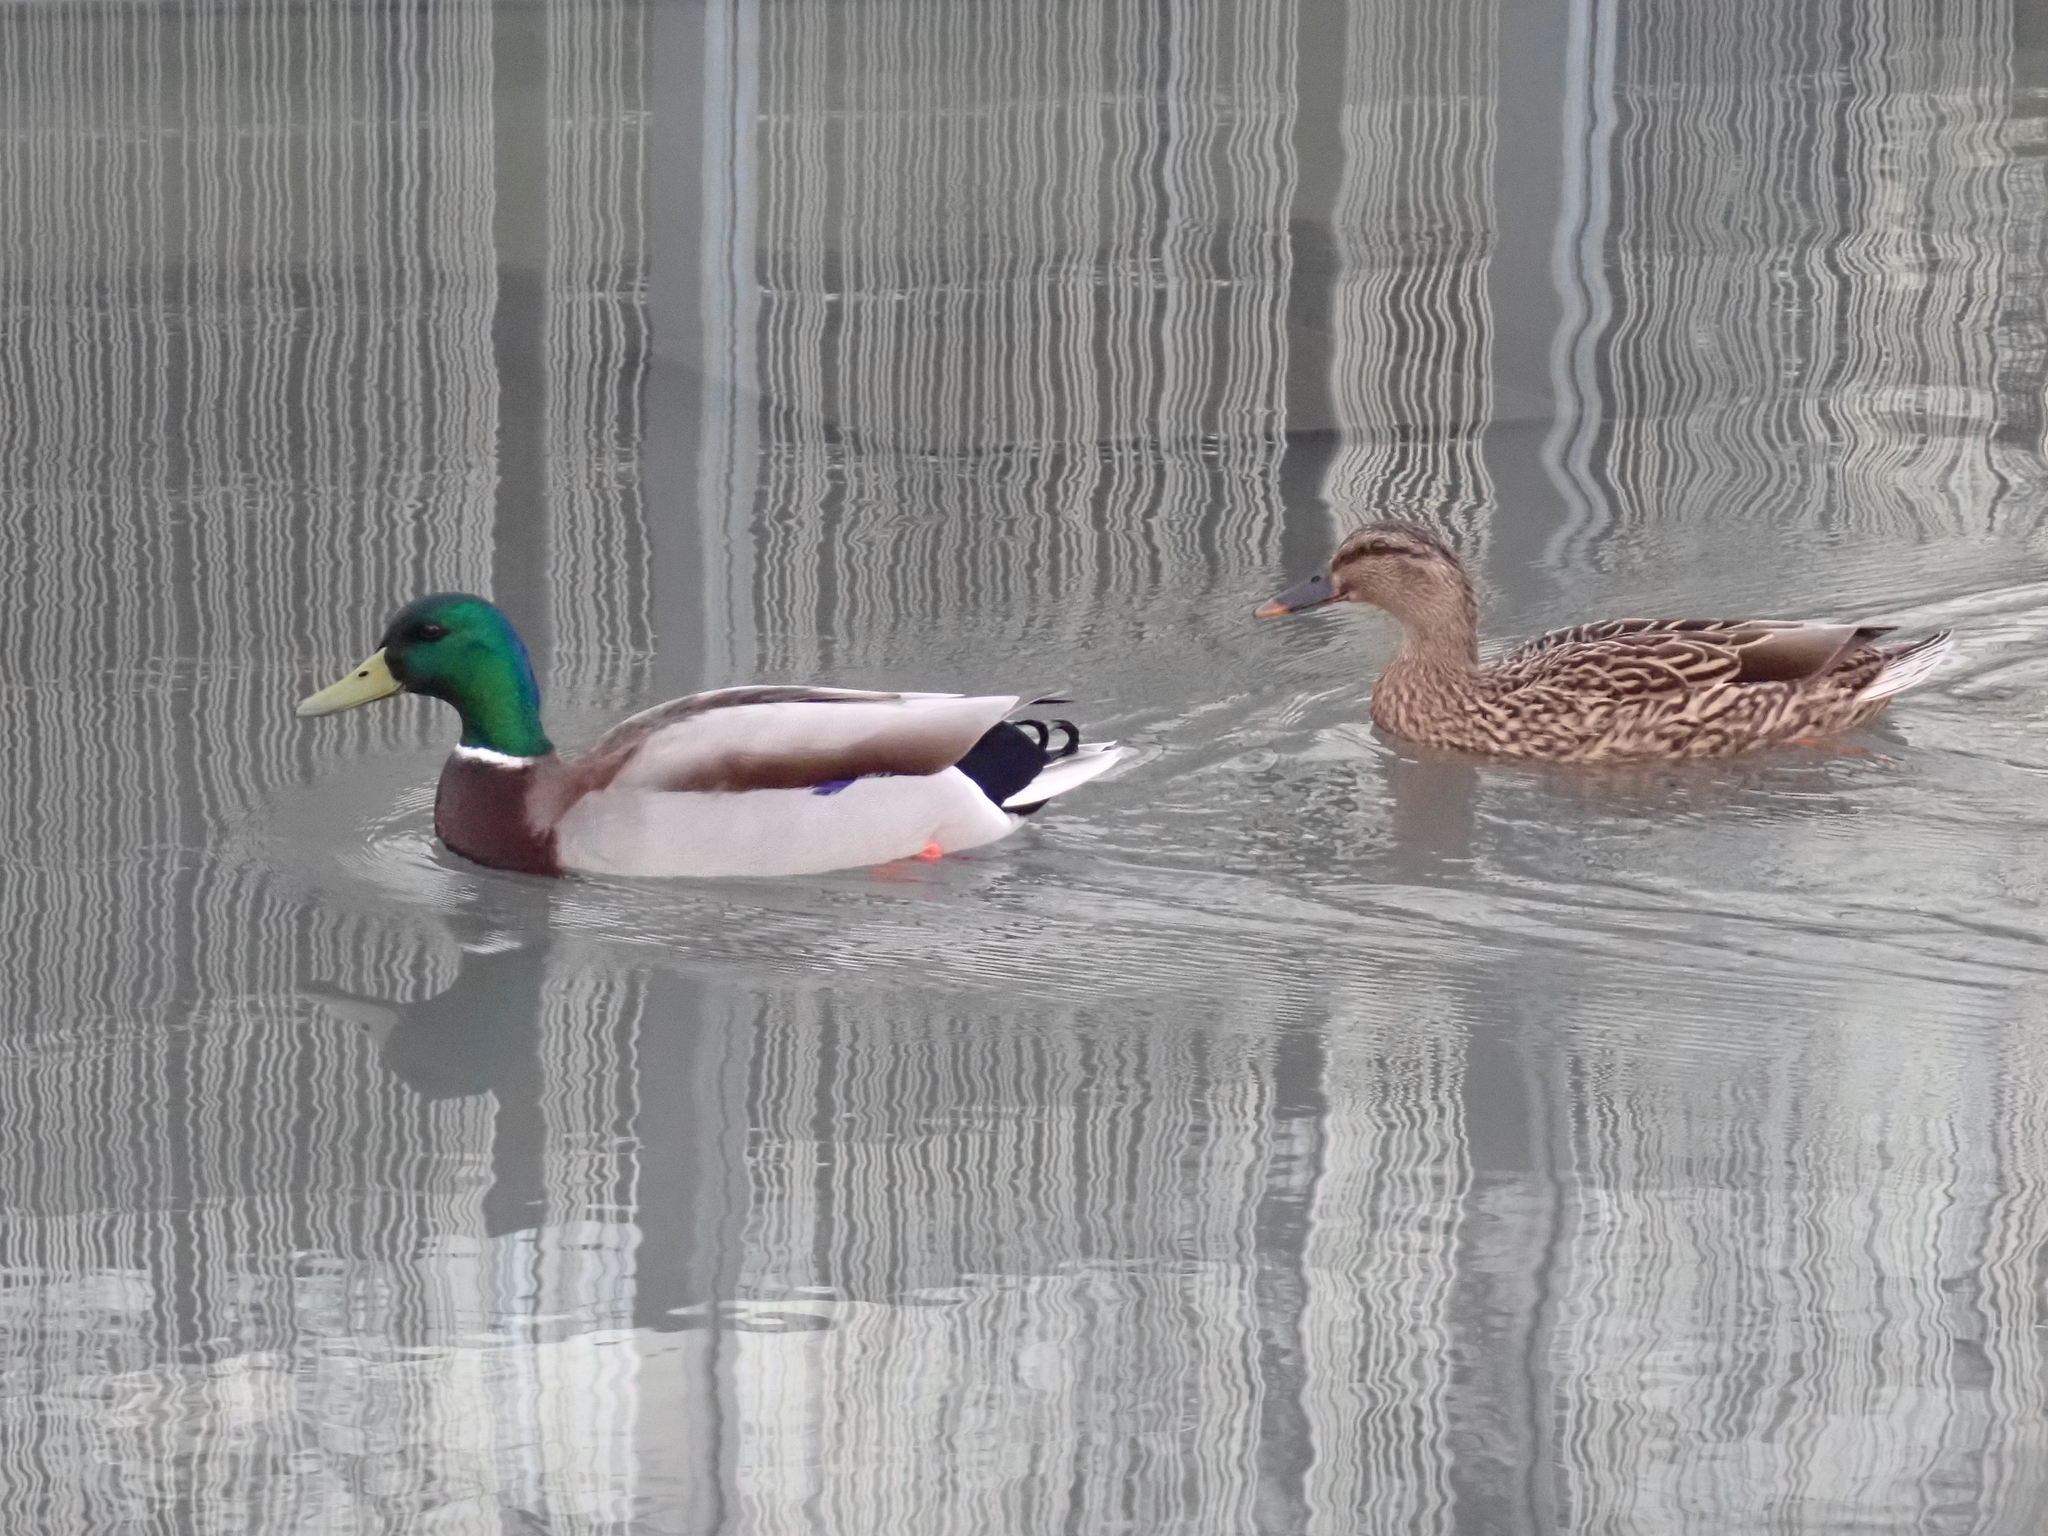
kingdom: Animalia
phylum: Chordata
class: Aves
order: Anseriformes
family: Anatidae
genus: Anas
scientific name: Anas platyrhynchos
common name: Mallard
